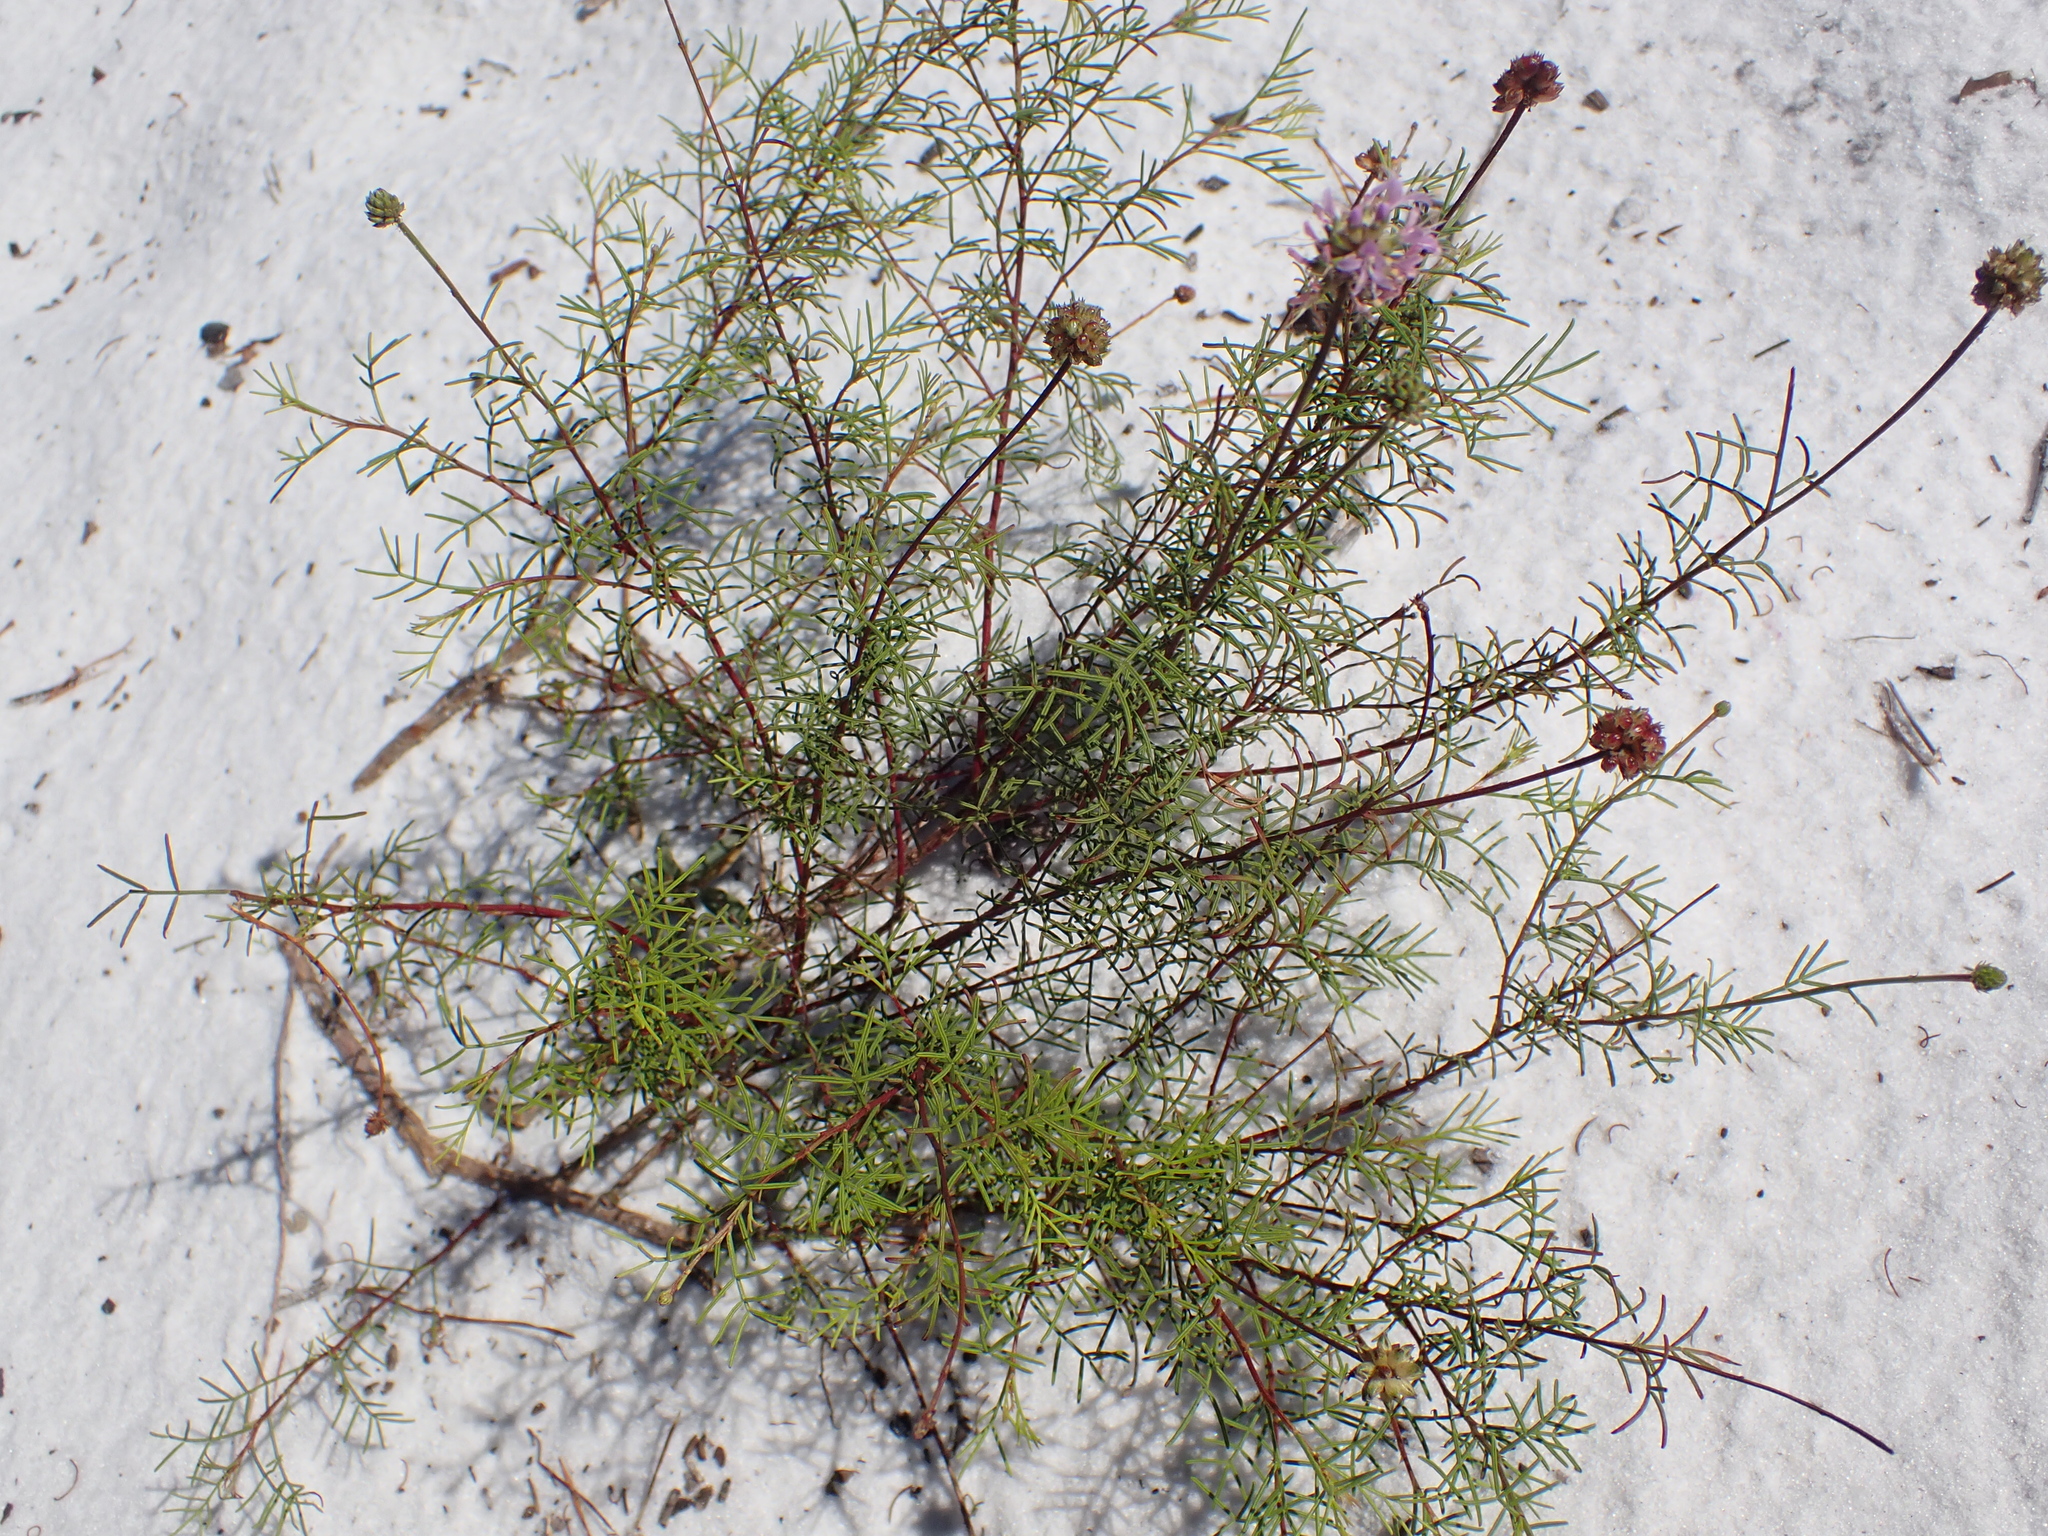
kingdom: Plantae
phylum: Tracheophyta
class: Magnoliopsida
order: Fabales
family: Fabaceae
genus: Dalea
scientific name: Dalea feayi
